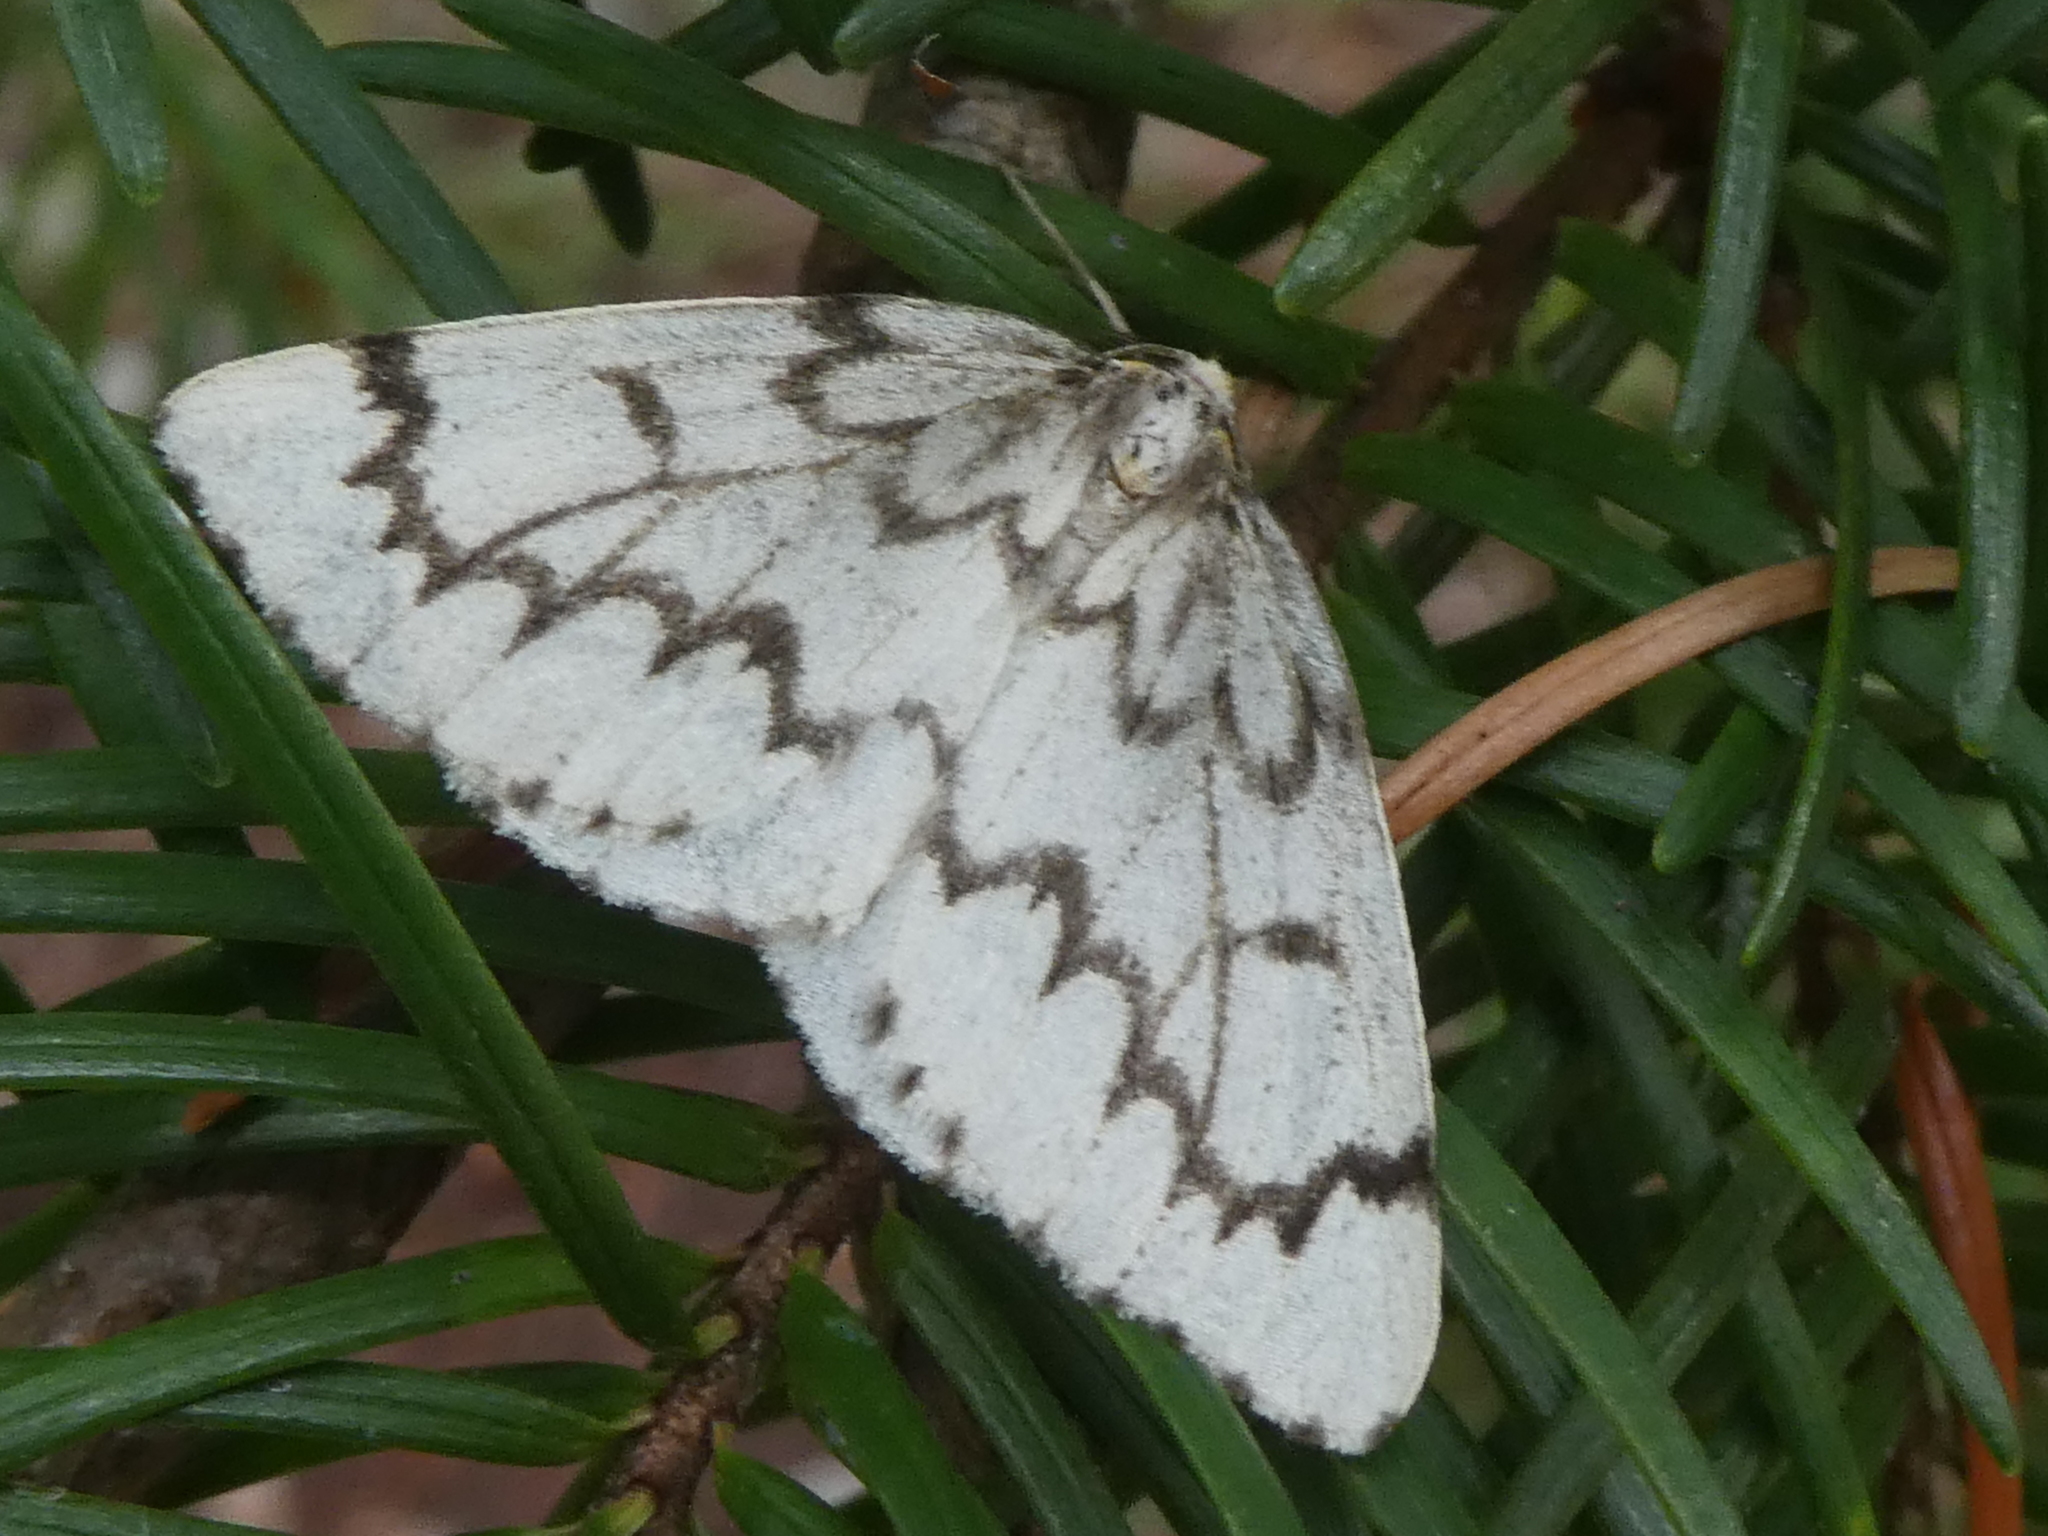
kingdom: Animalia
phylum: Arthropoda
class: Insecta
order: Lepidoptera
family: Geometridae
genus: Nepytia
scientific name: Nepytia phantasmaria
